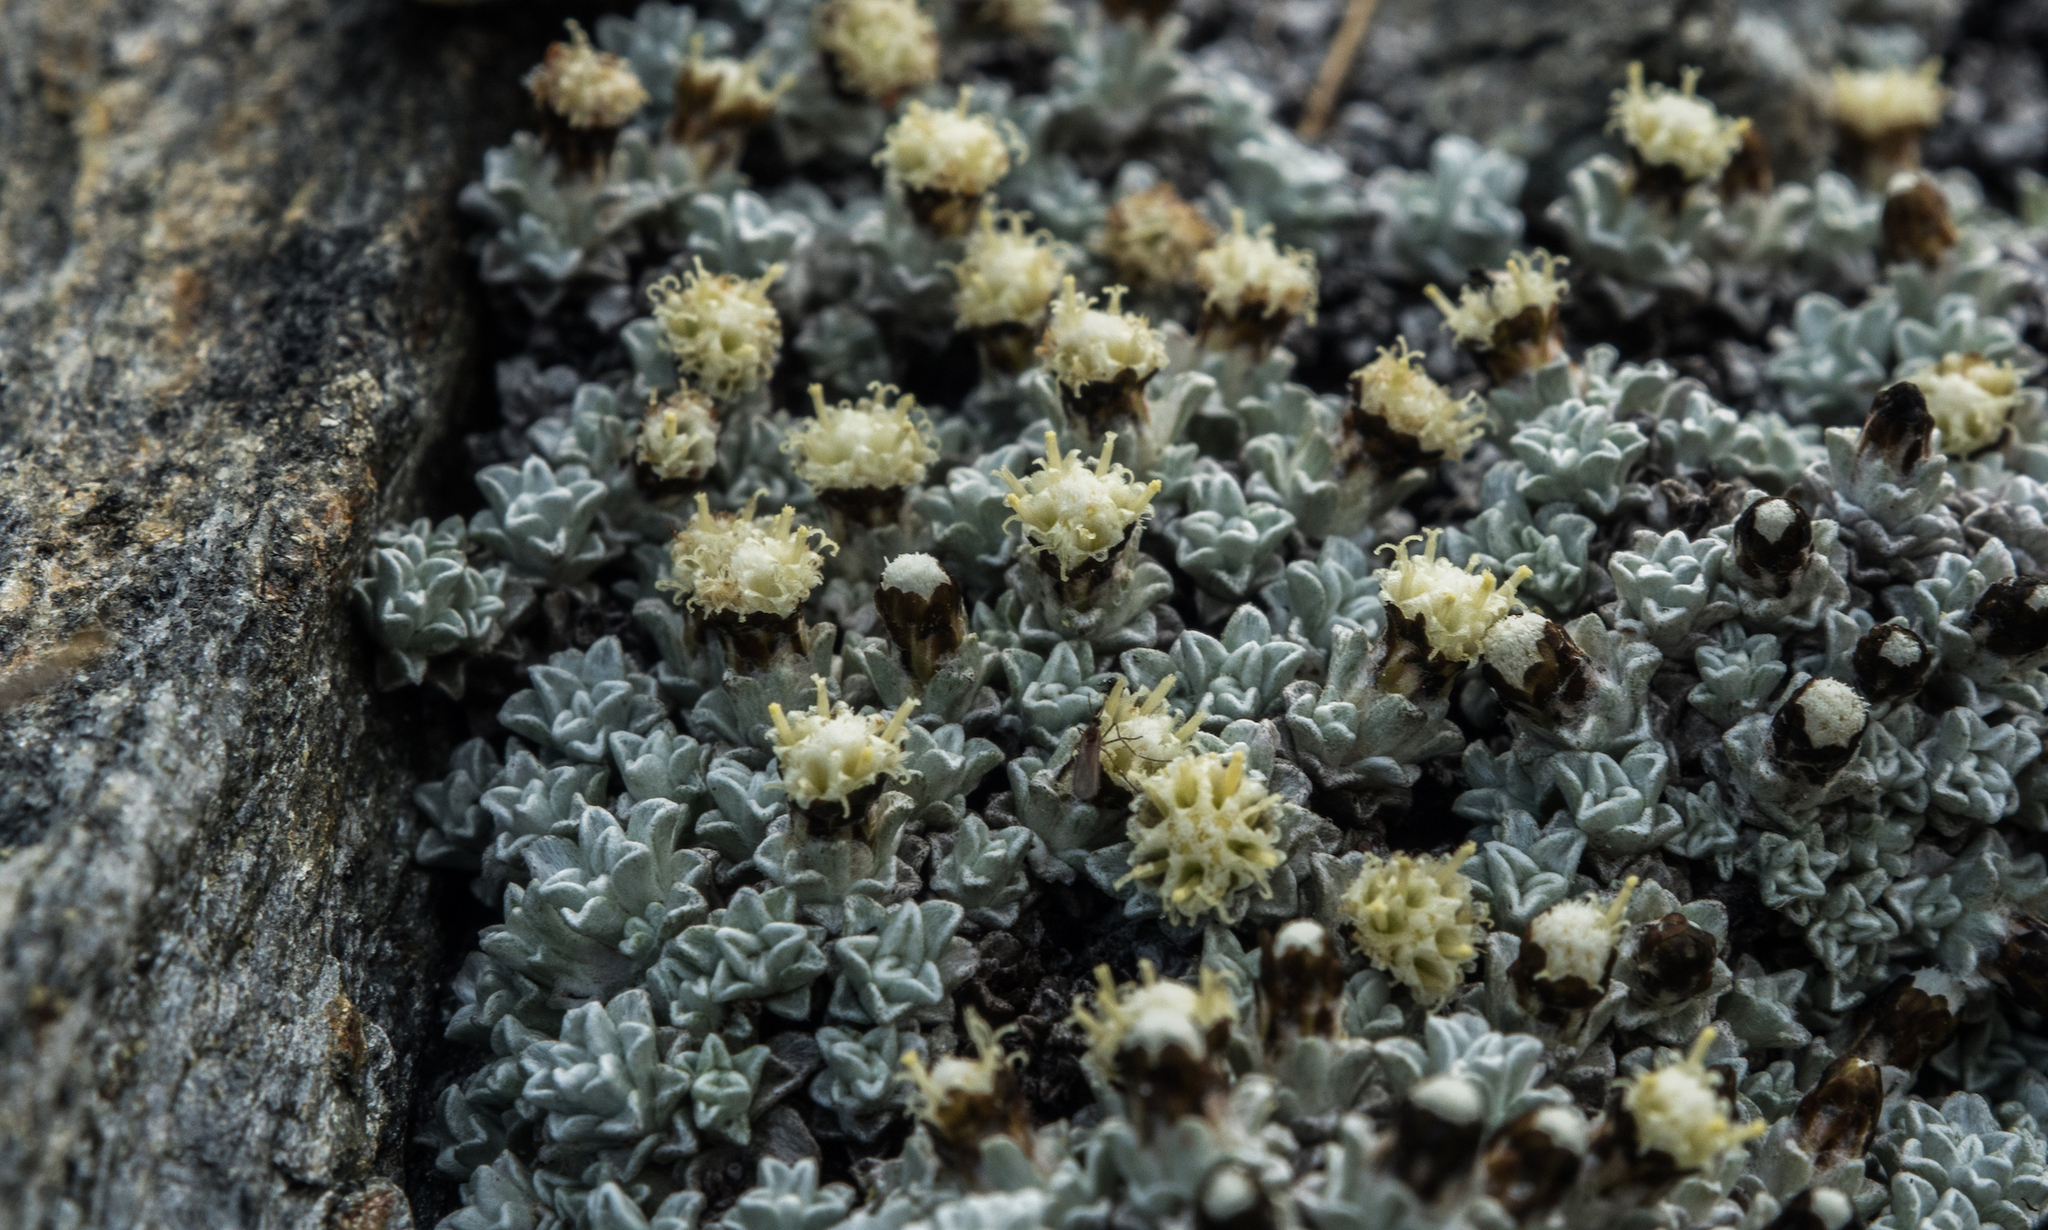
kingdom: Plantae
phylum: Tracheophyta
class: Magnoliopsida
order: Asterales
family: Asteraceae
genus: Raoulia
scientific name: Raoulia apicinigra
